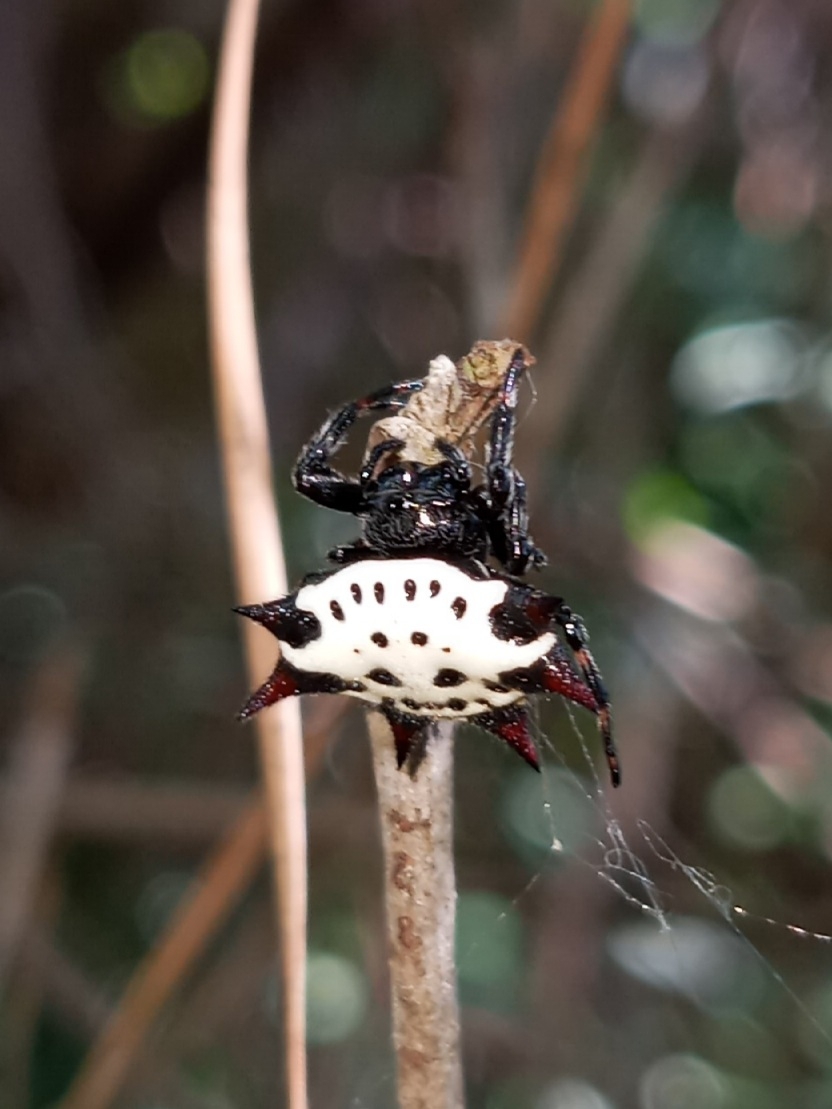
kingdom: Animalia
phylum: Arthropoda
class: Arachnida
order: Araneae
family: Araneidae
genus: Gasteracantha
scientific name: Gasteracantha cancriformis
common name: Orb weavers
